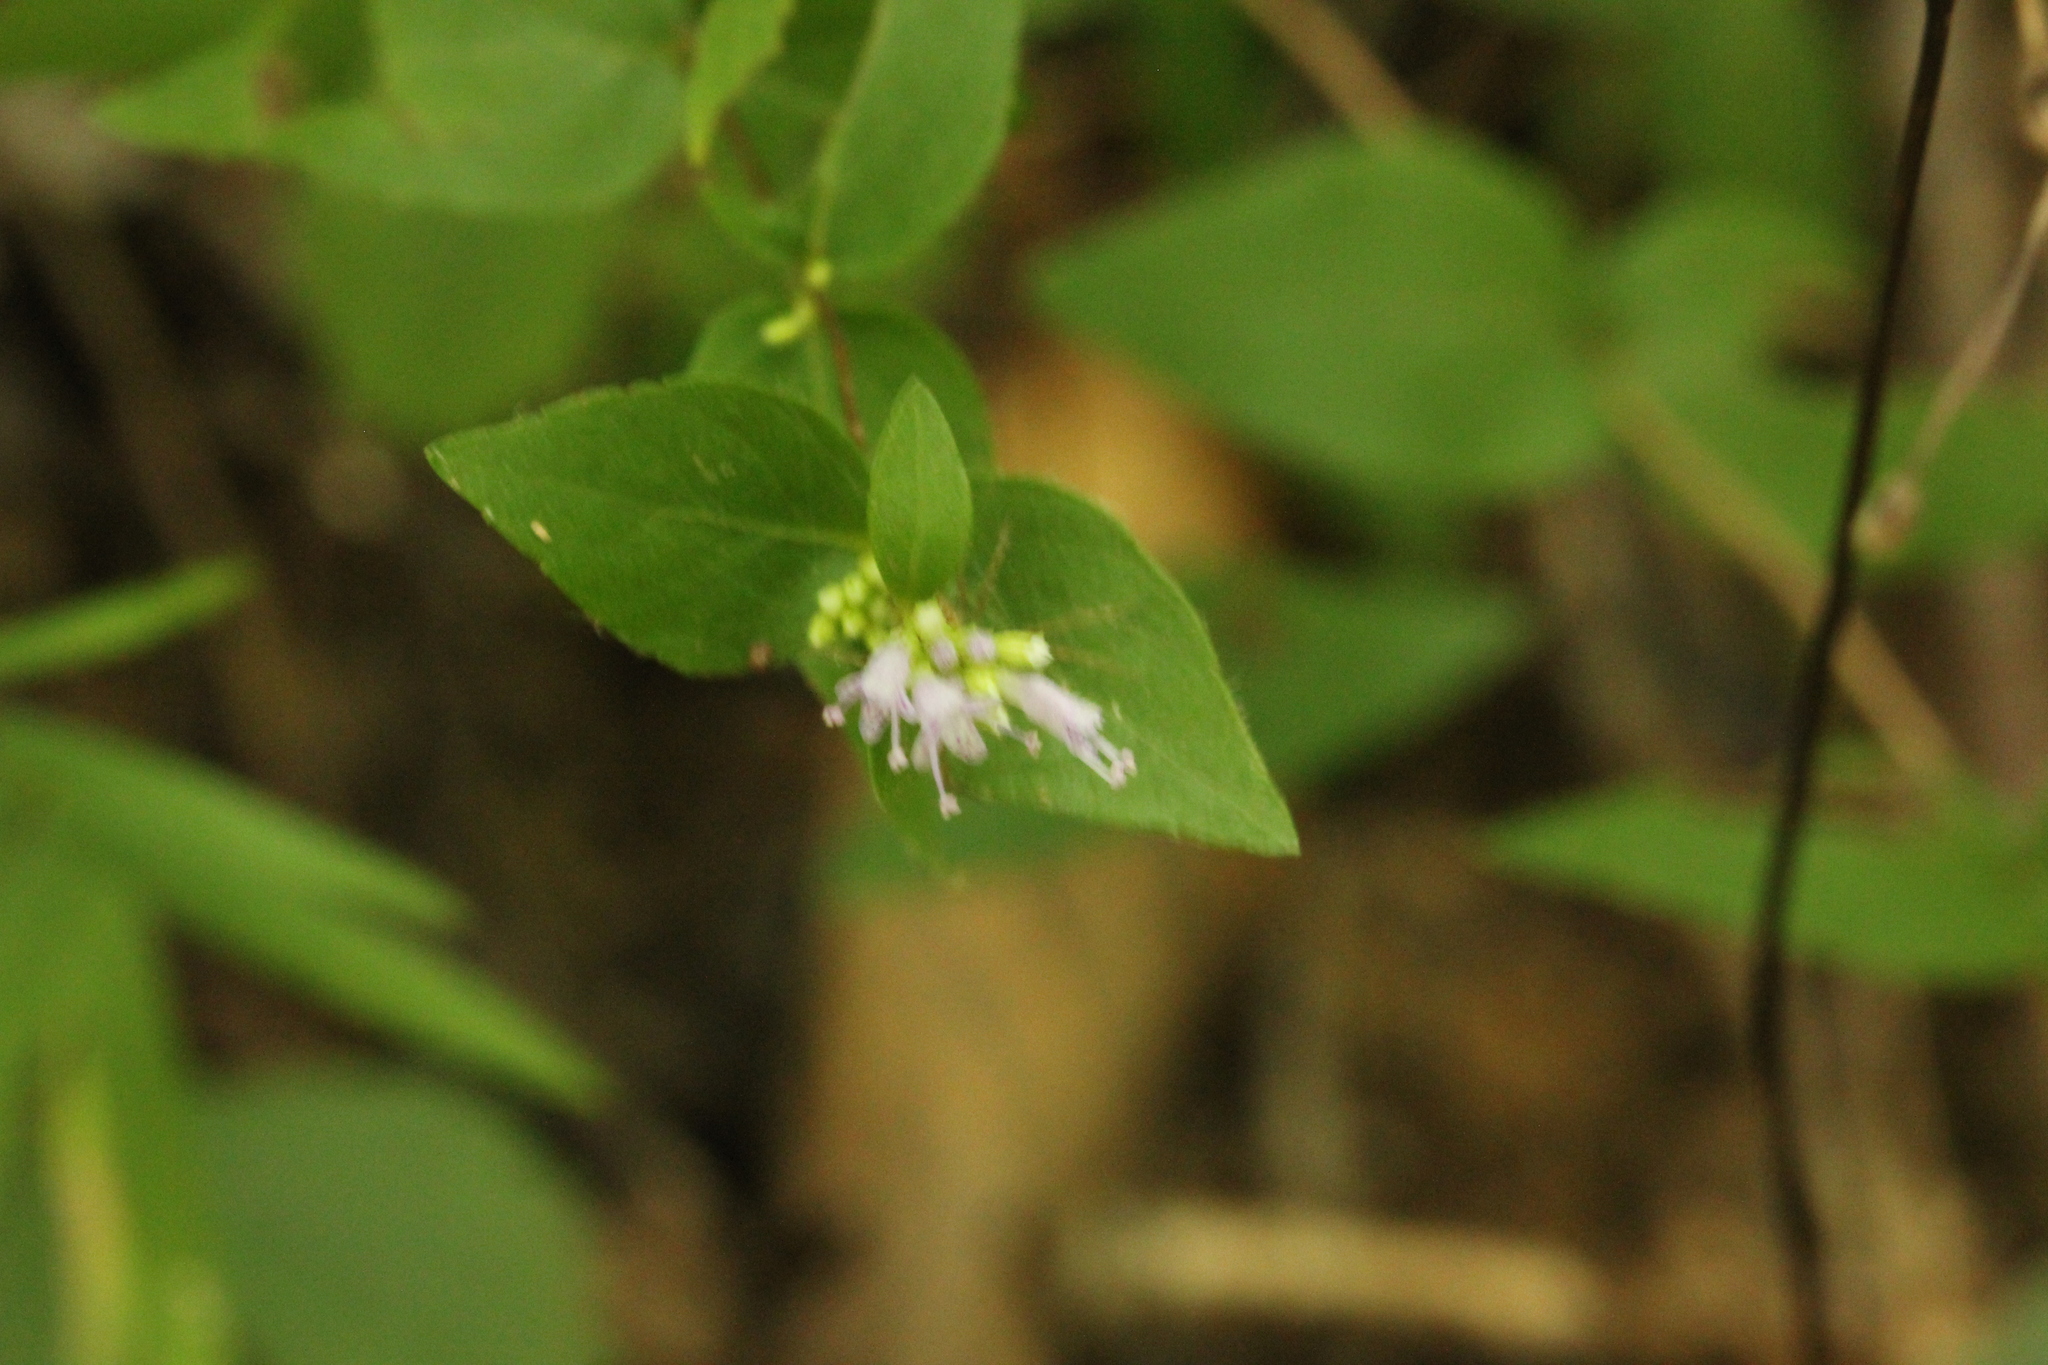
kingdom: Plantae
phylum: Tracheophyta
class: Magnoliopsida
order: Lamiales
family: Lamiaceae
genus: Cunila
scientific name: Cunila origanoides
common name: American dittany
